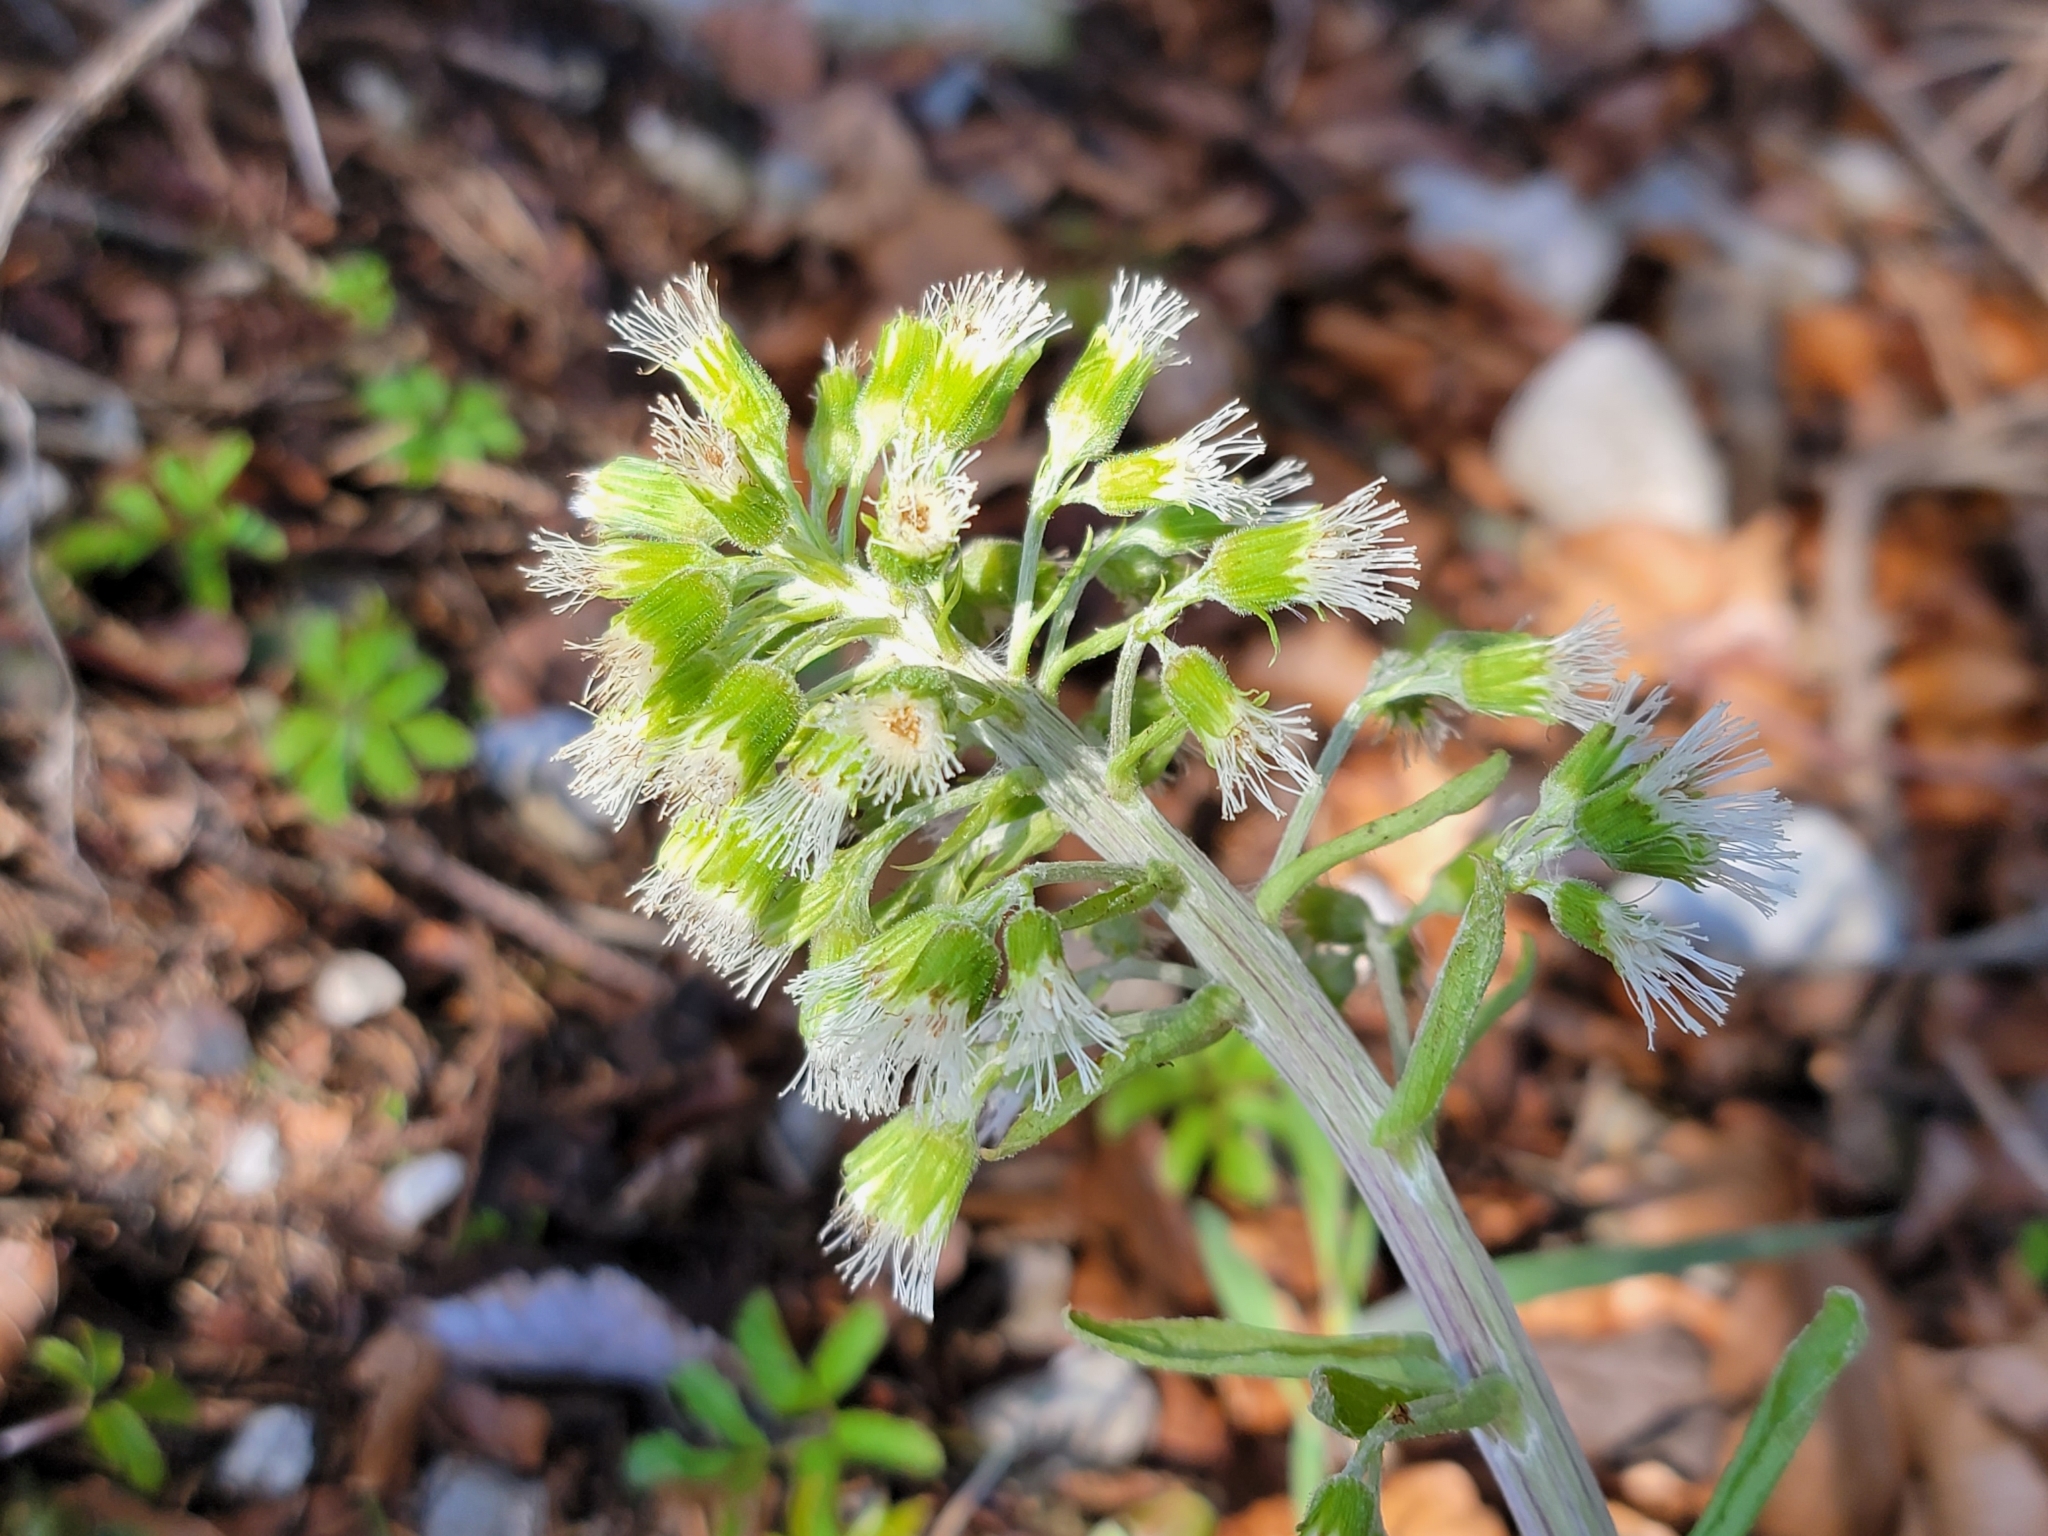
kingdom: Plantae
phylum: Tracheophyta
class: Magnoliopsida
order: Asterales
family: Asteraceae
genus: Petasites
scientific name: Petasites albus
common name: White butterbur
